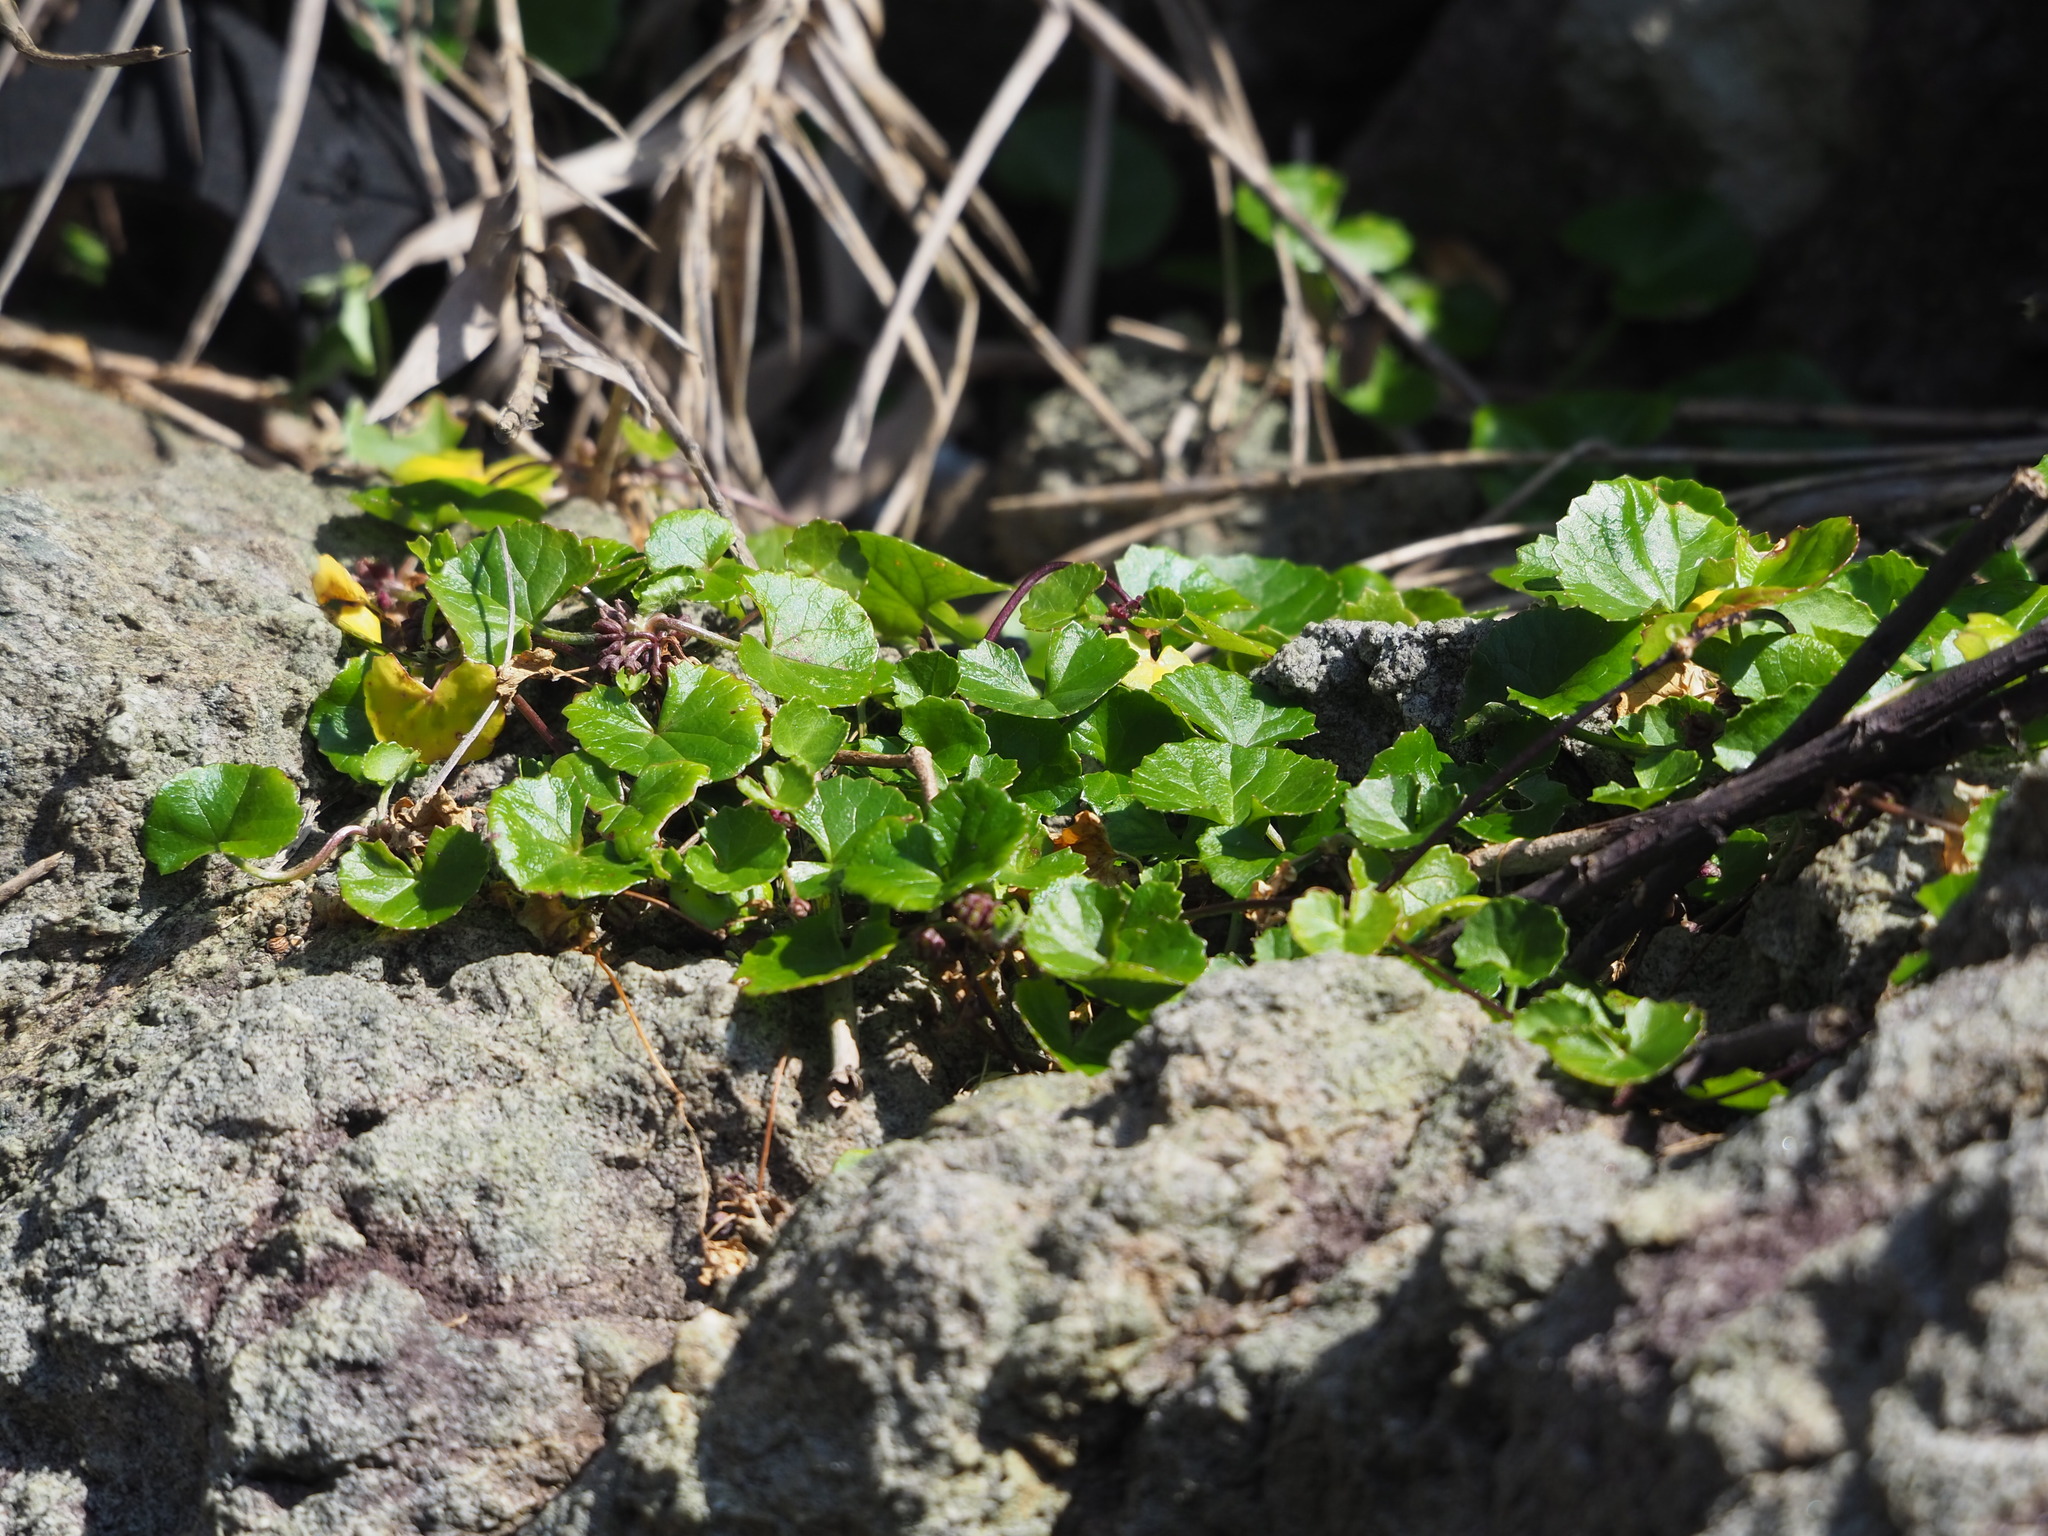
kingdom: Plantae
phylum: Tracheophyta
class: Magnoliopsida
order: Apiales
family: Apiaceae
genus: Centella
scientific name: Centella asiatica
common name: Spadeleaf
